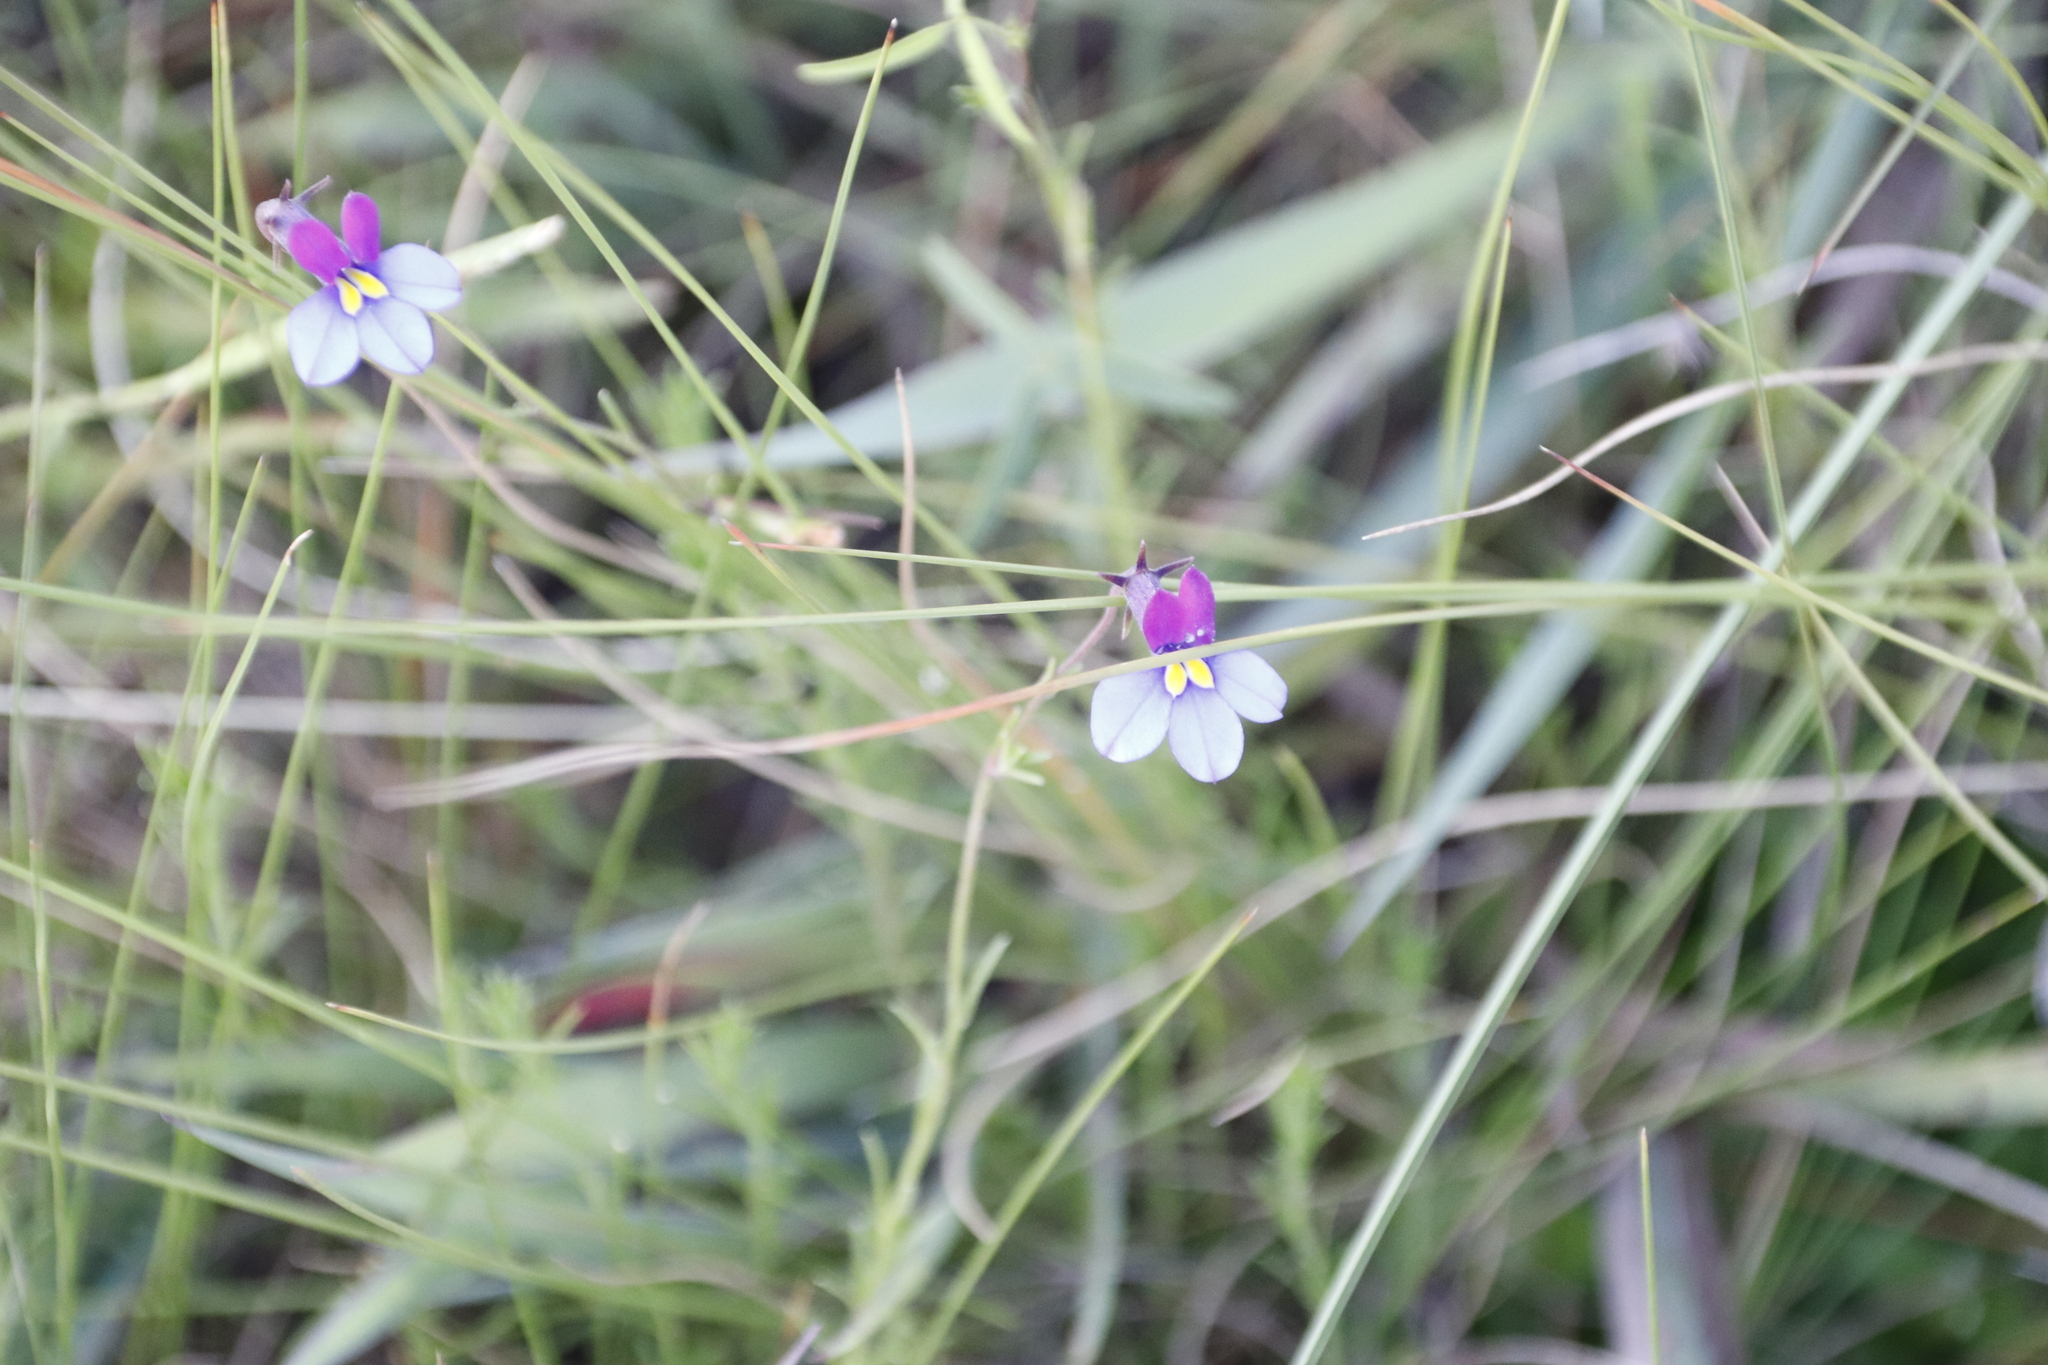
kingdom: Plantae
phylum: Tracheophyta
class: Magnoliopsida
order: Asterales
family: Campanulaceae
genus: Monopsis
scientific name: Monopsis decipiens
